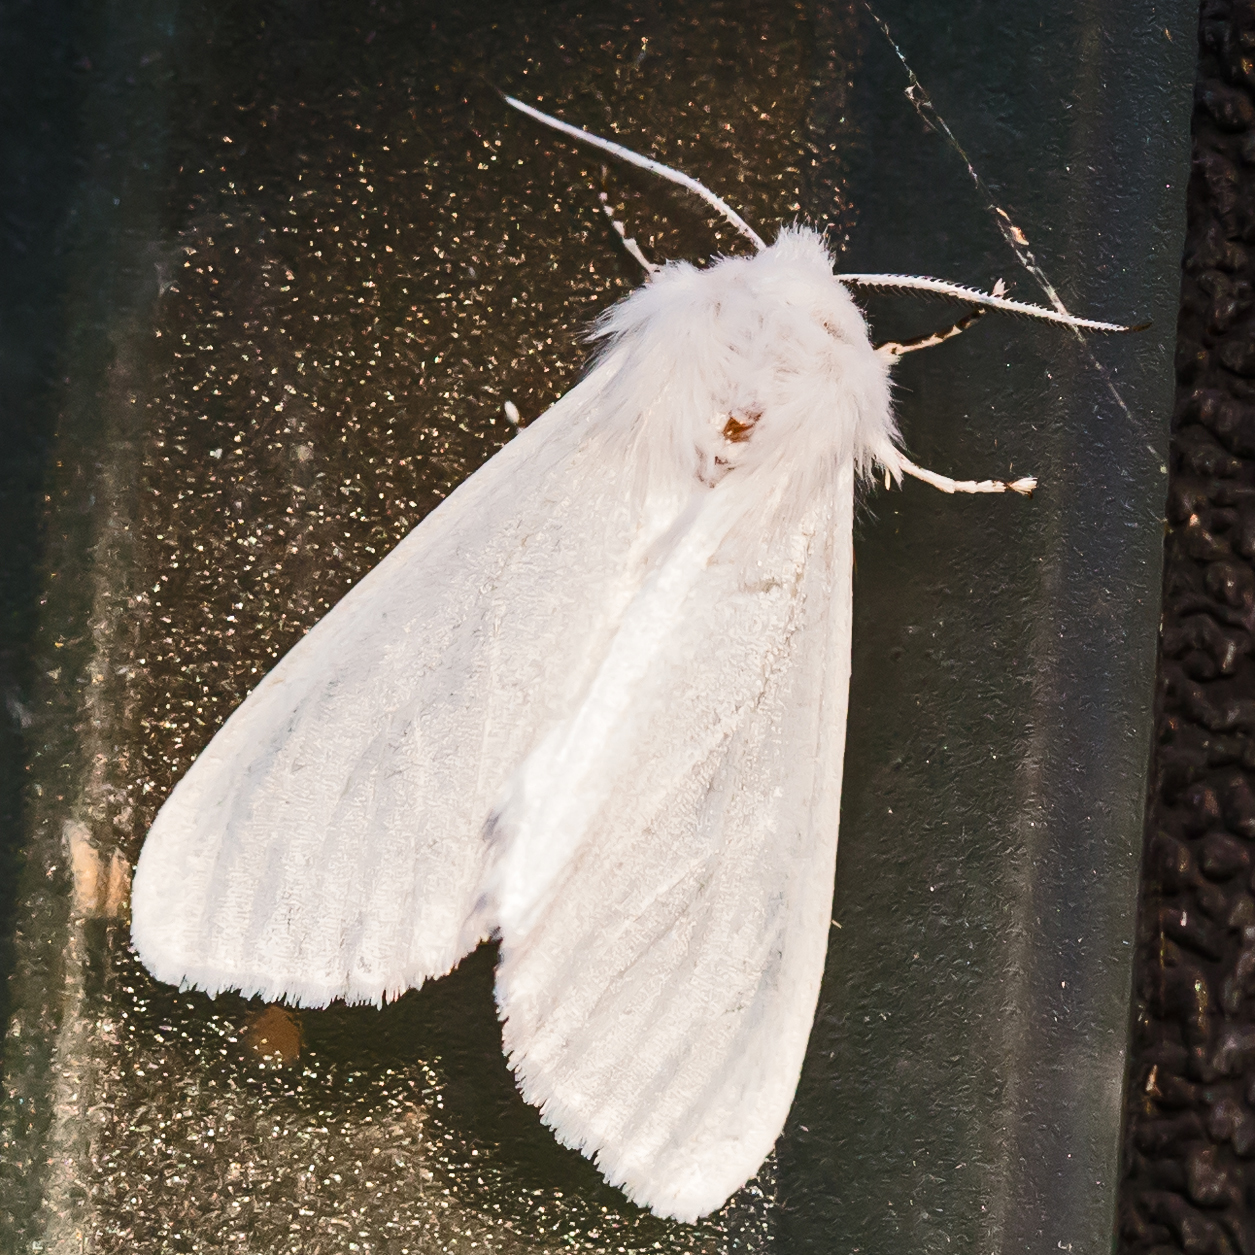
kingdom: Animalia
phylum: Arthropoda
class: Insecta
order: Lepidoptera
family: Erebidae
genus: Hyphantria
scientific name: Hyphantria cunea
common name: American white moth
